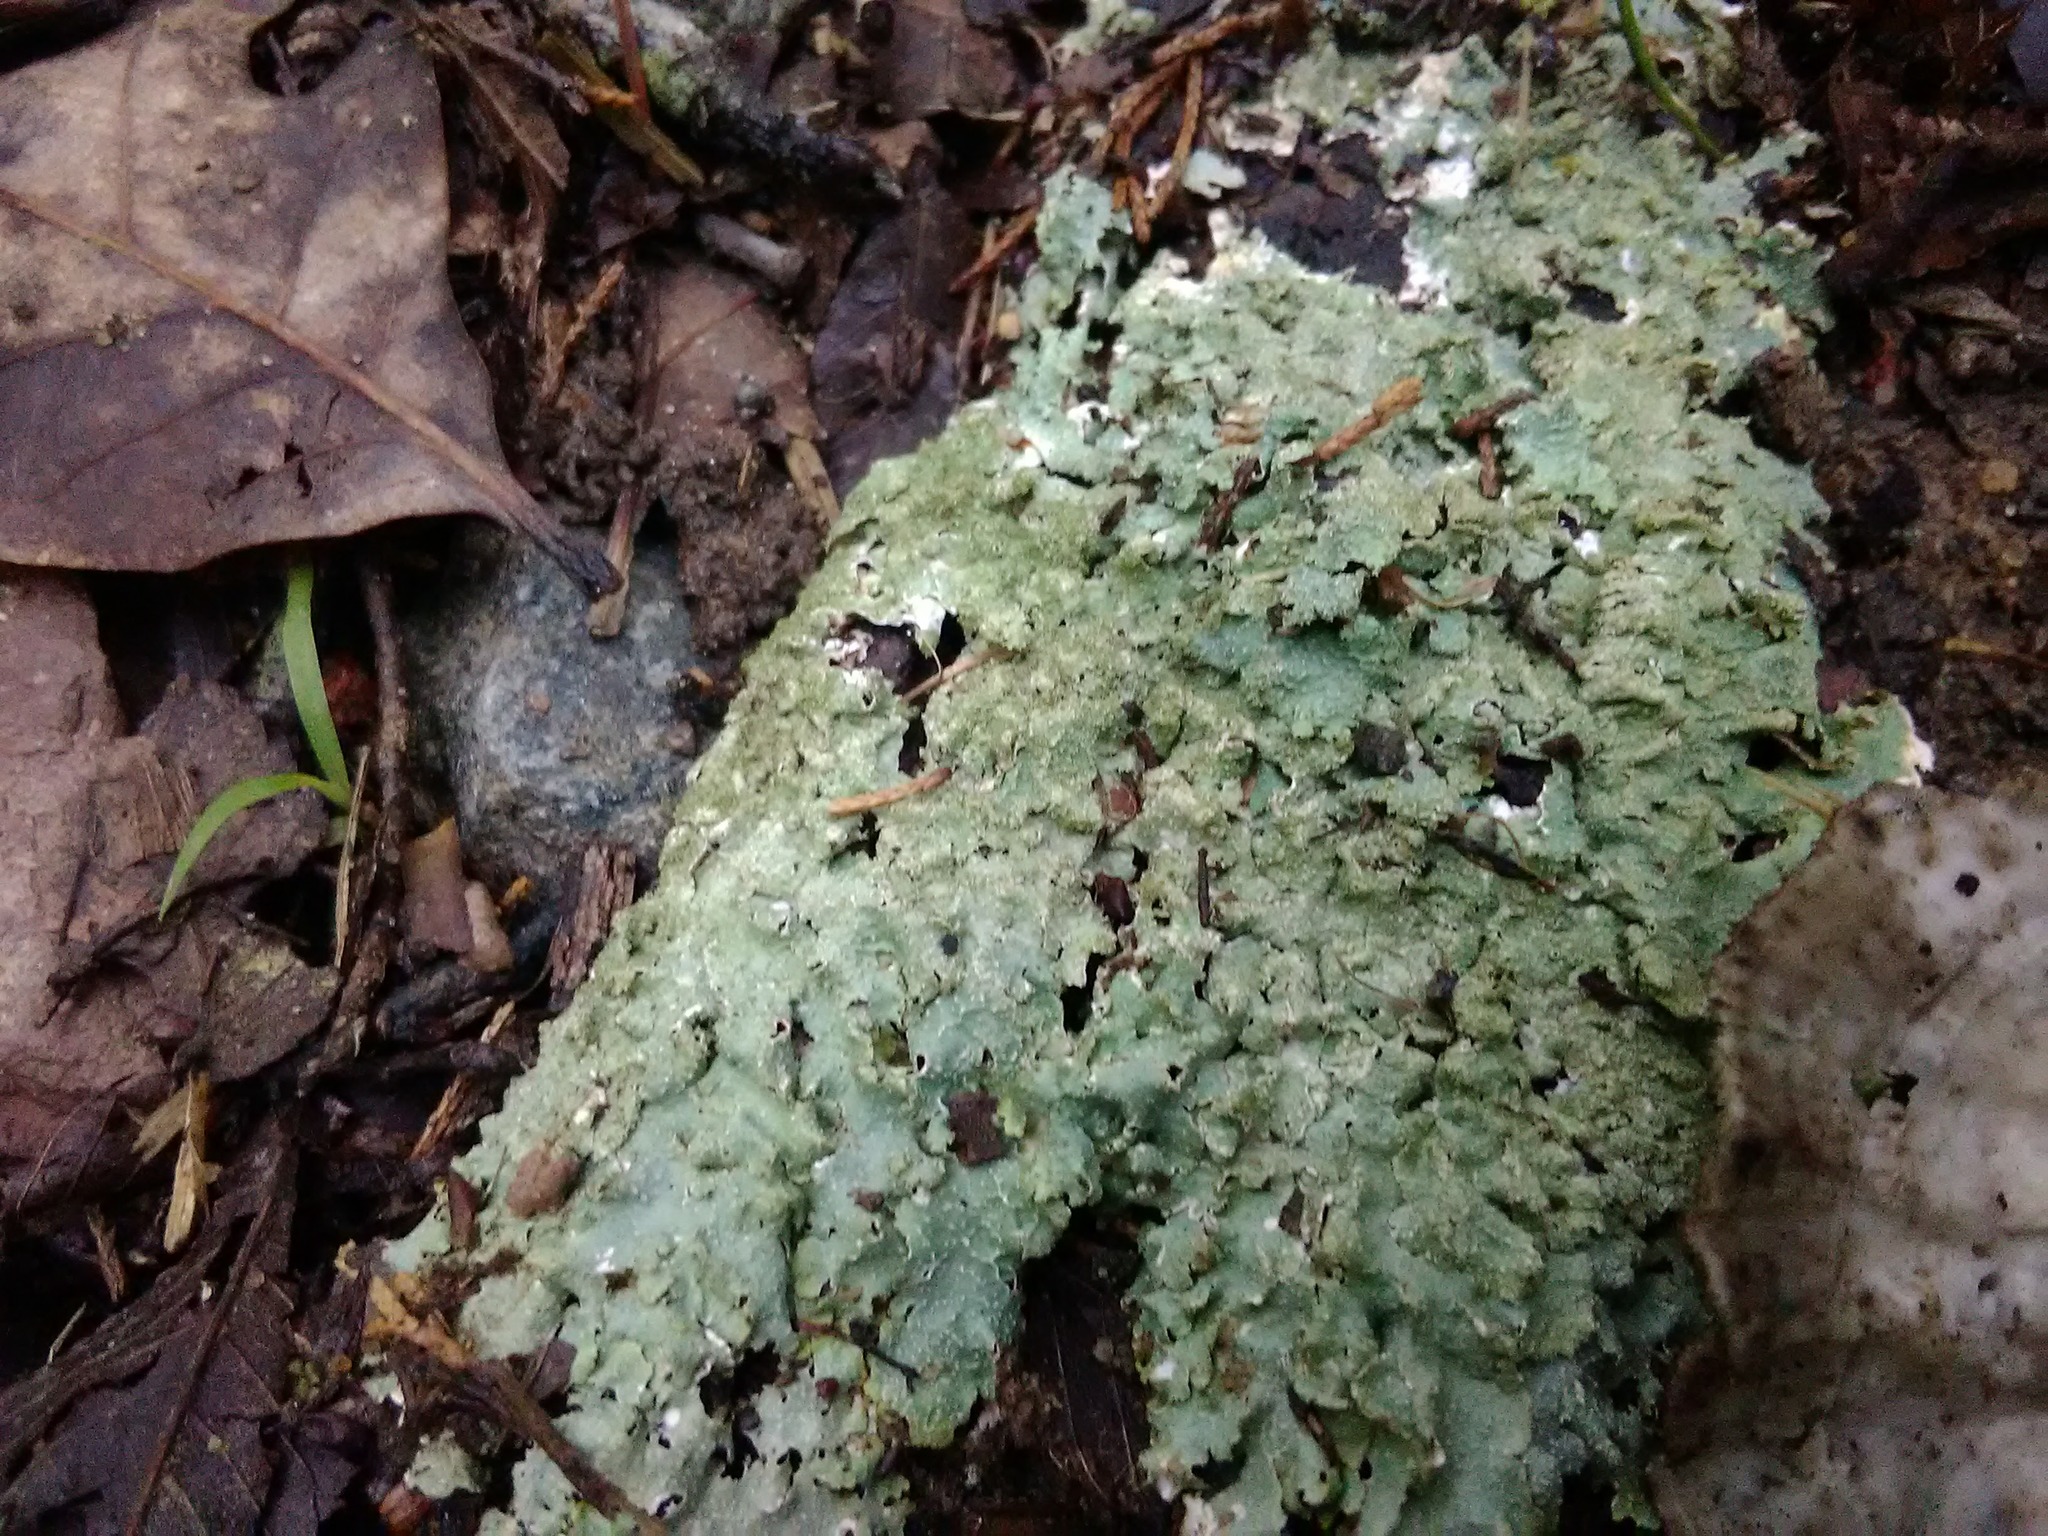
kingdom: Fungi
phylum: Ascomycota
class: Lecanoromycetes
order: Lecanorales
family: Parmeliaceae
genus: Punctelia
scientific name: Punctelia rudecta
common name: Rough speckled shield lichen
